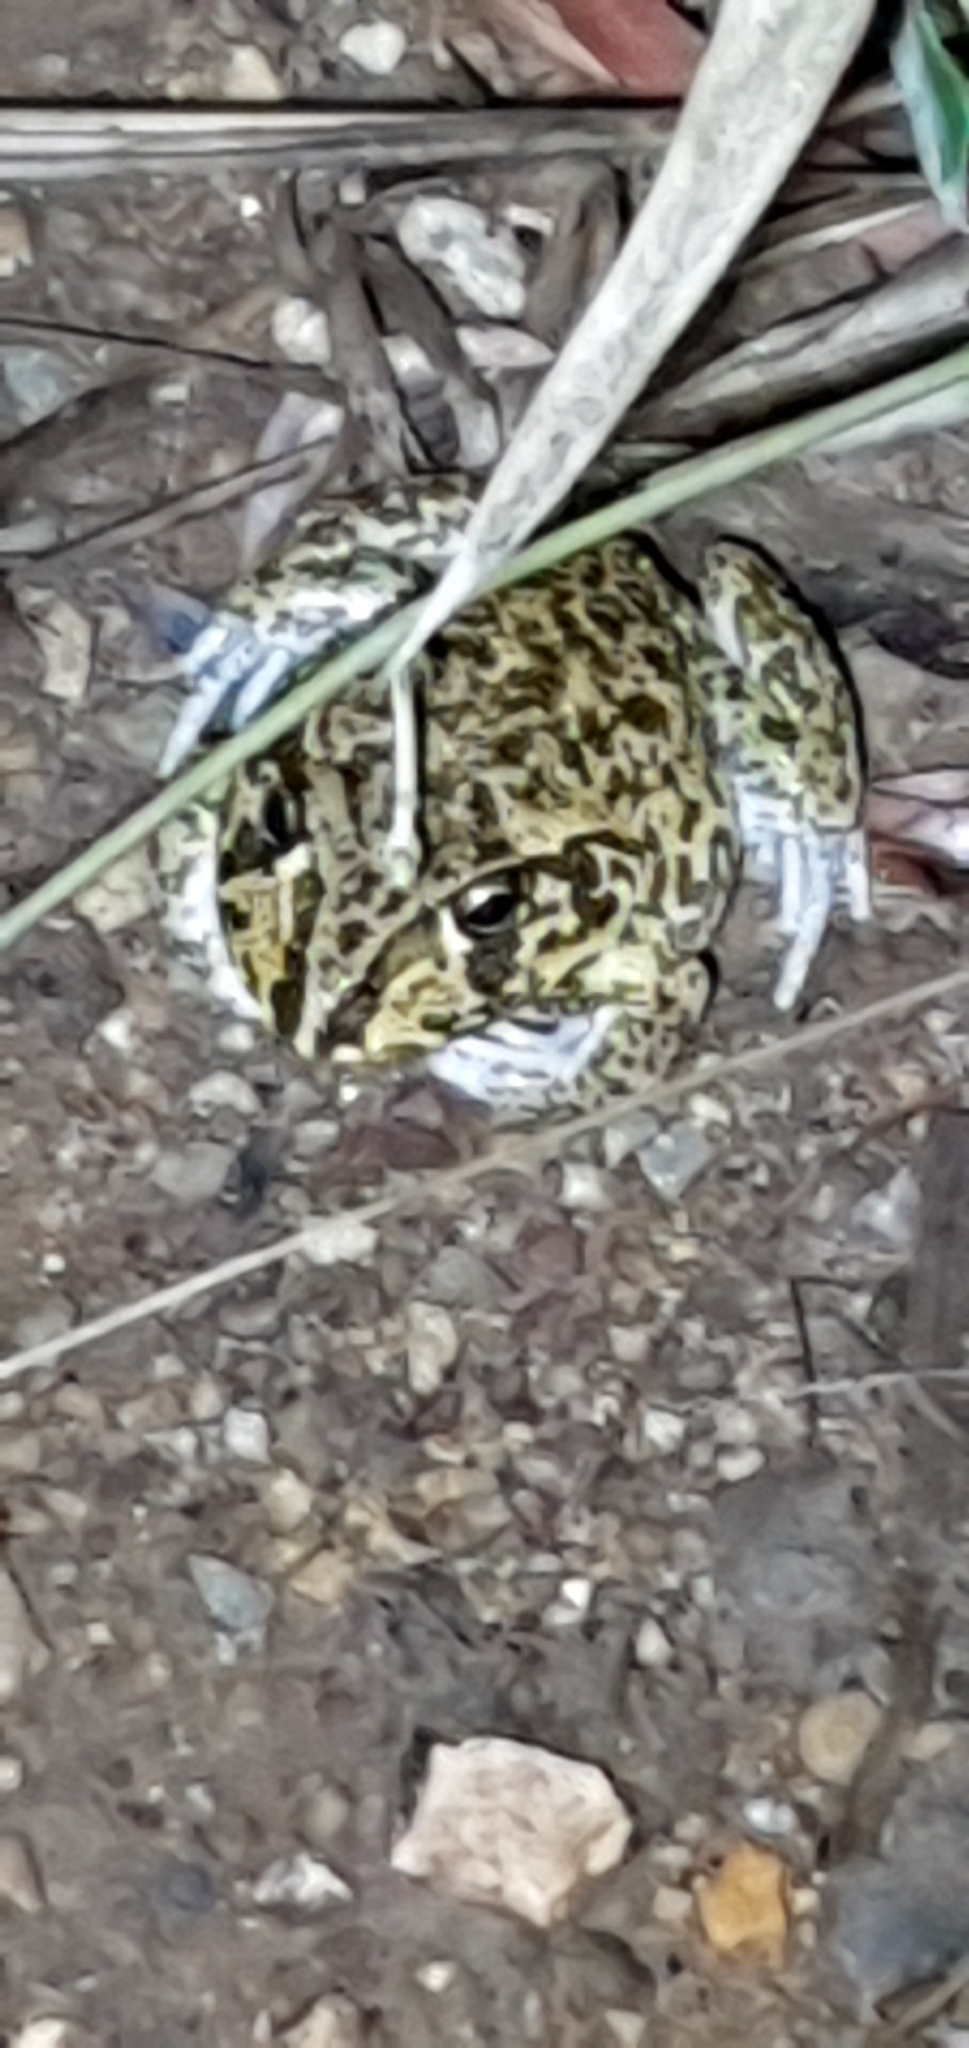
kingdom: Animalia
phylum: Chordata
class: Amphibia
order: Anura
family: Pelodryadidae
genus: Ranoidea
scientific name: Ranoidea novaehollandiae
